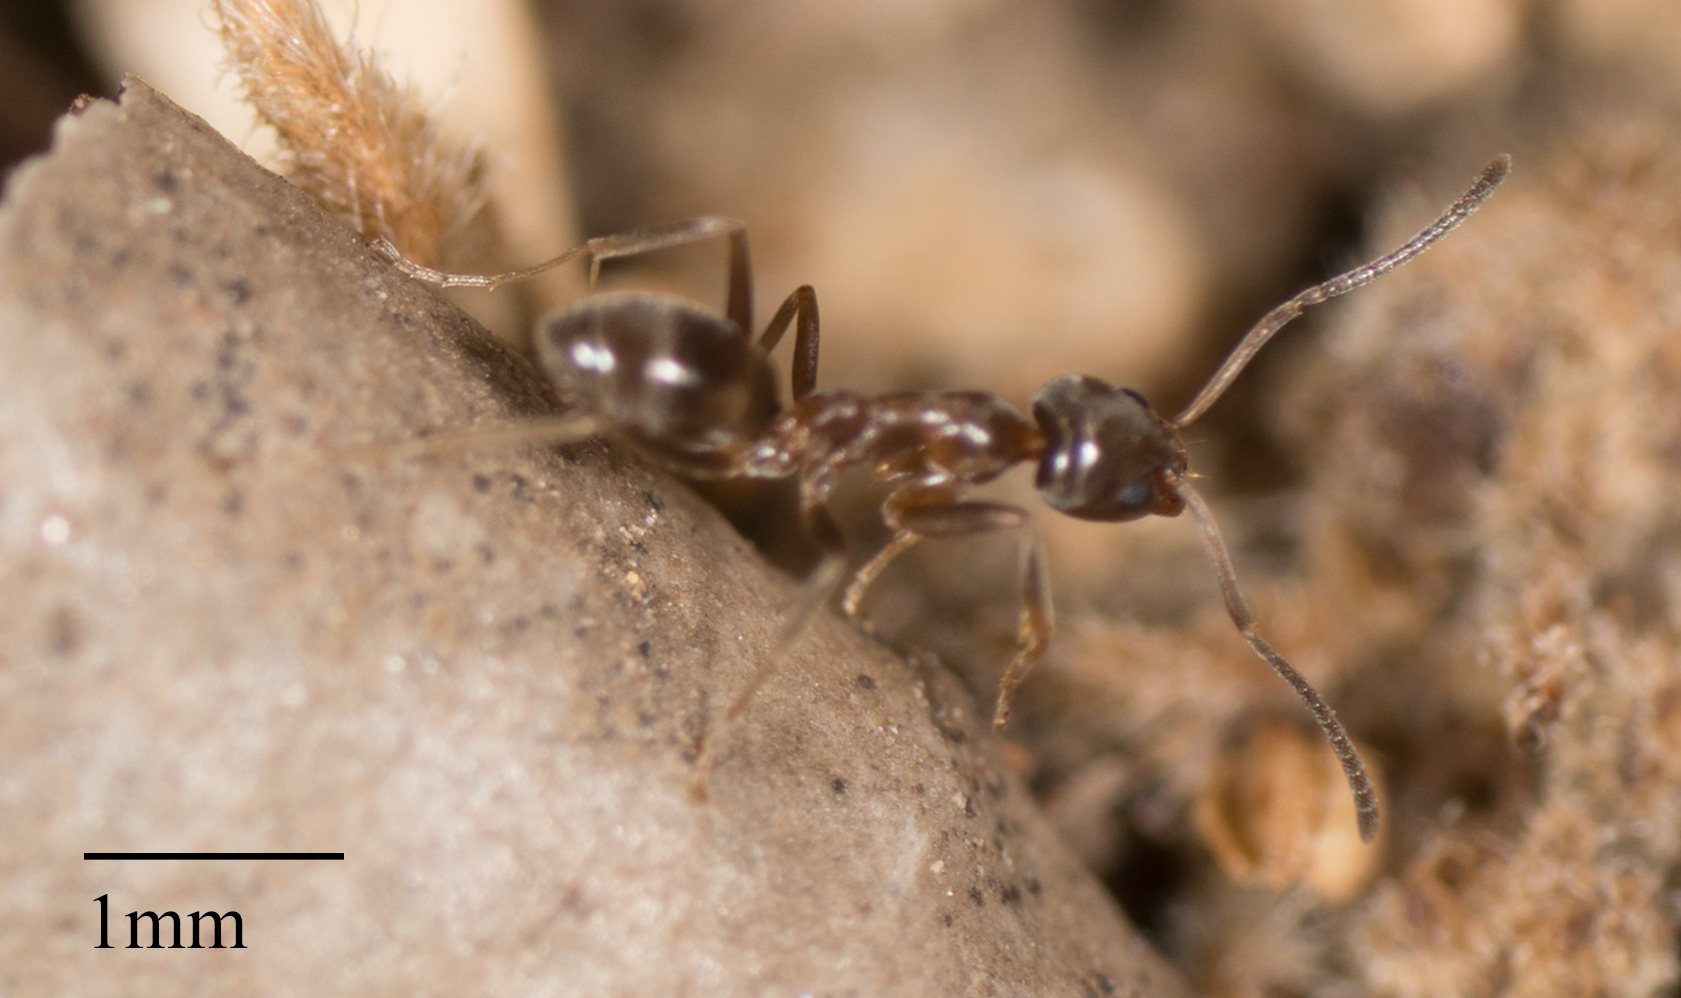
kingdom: Animalia
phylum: Arthropoda
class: Insecta
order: Hymenoptera
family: Formicidae
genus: Linepithema
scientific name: Linepithema humile
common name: Argentine ant
